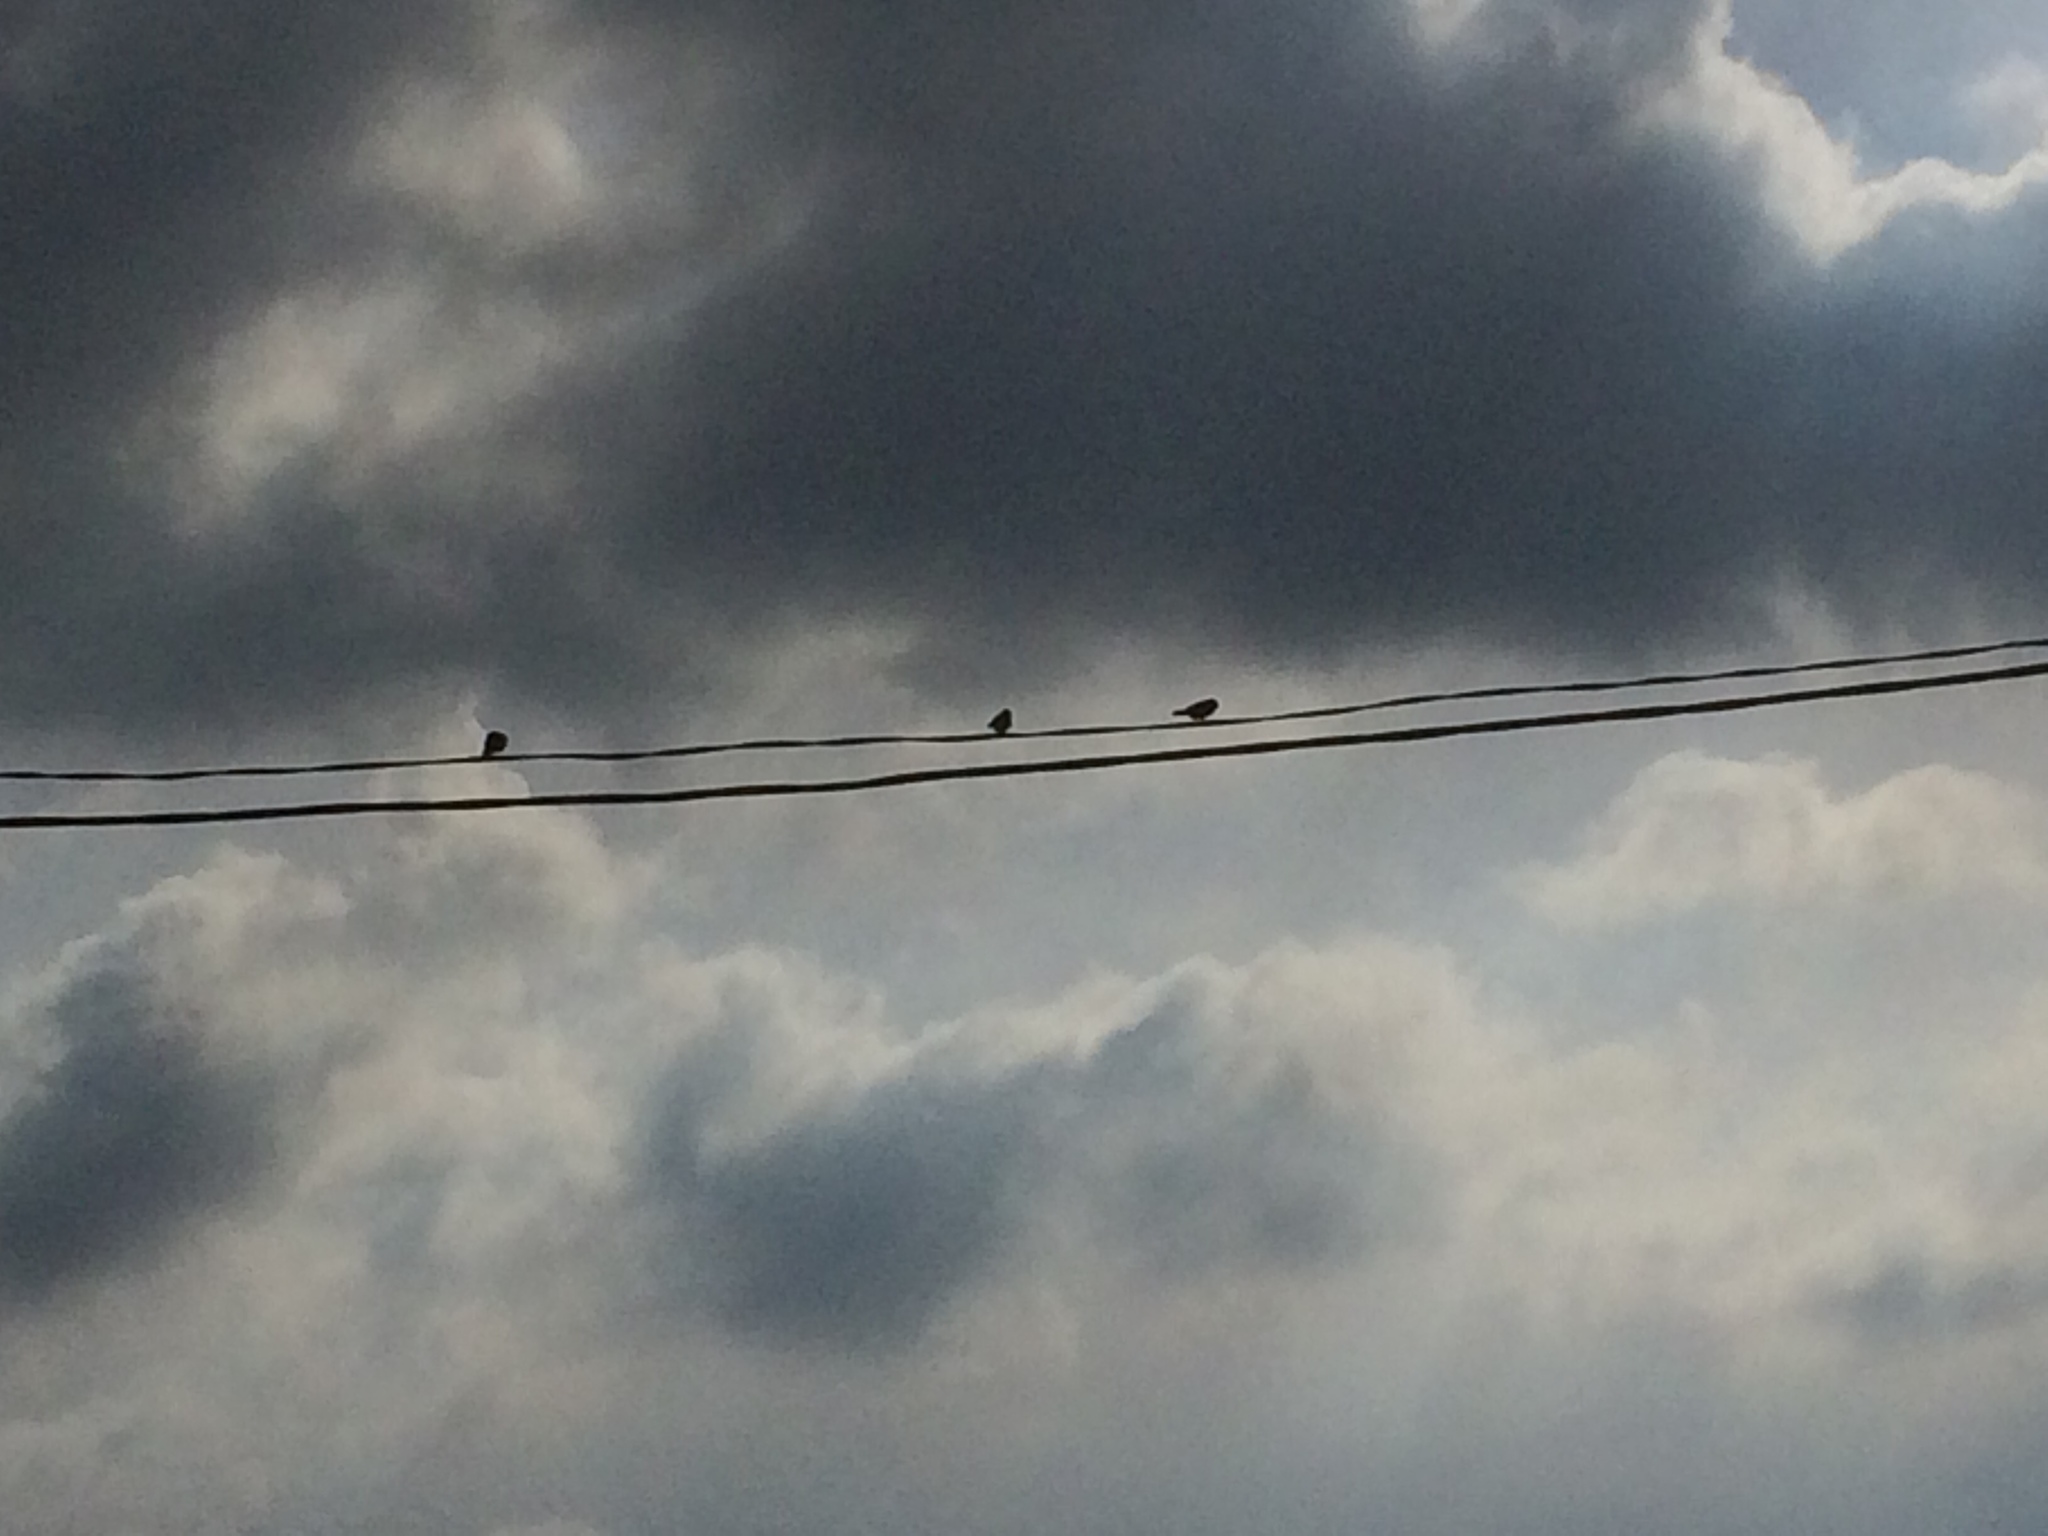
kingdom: Animalia
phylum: Chordata
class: Aves
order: Passeriformes
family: Hirundinidae
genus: Hirundo
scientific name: Hirundo rustica
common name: Barn swallow
